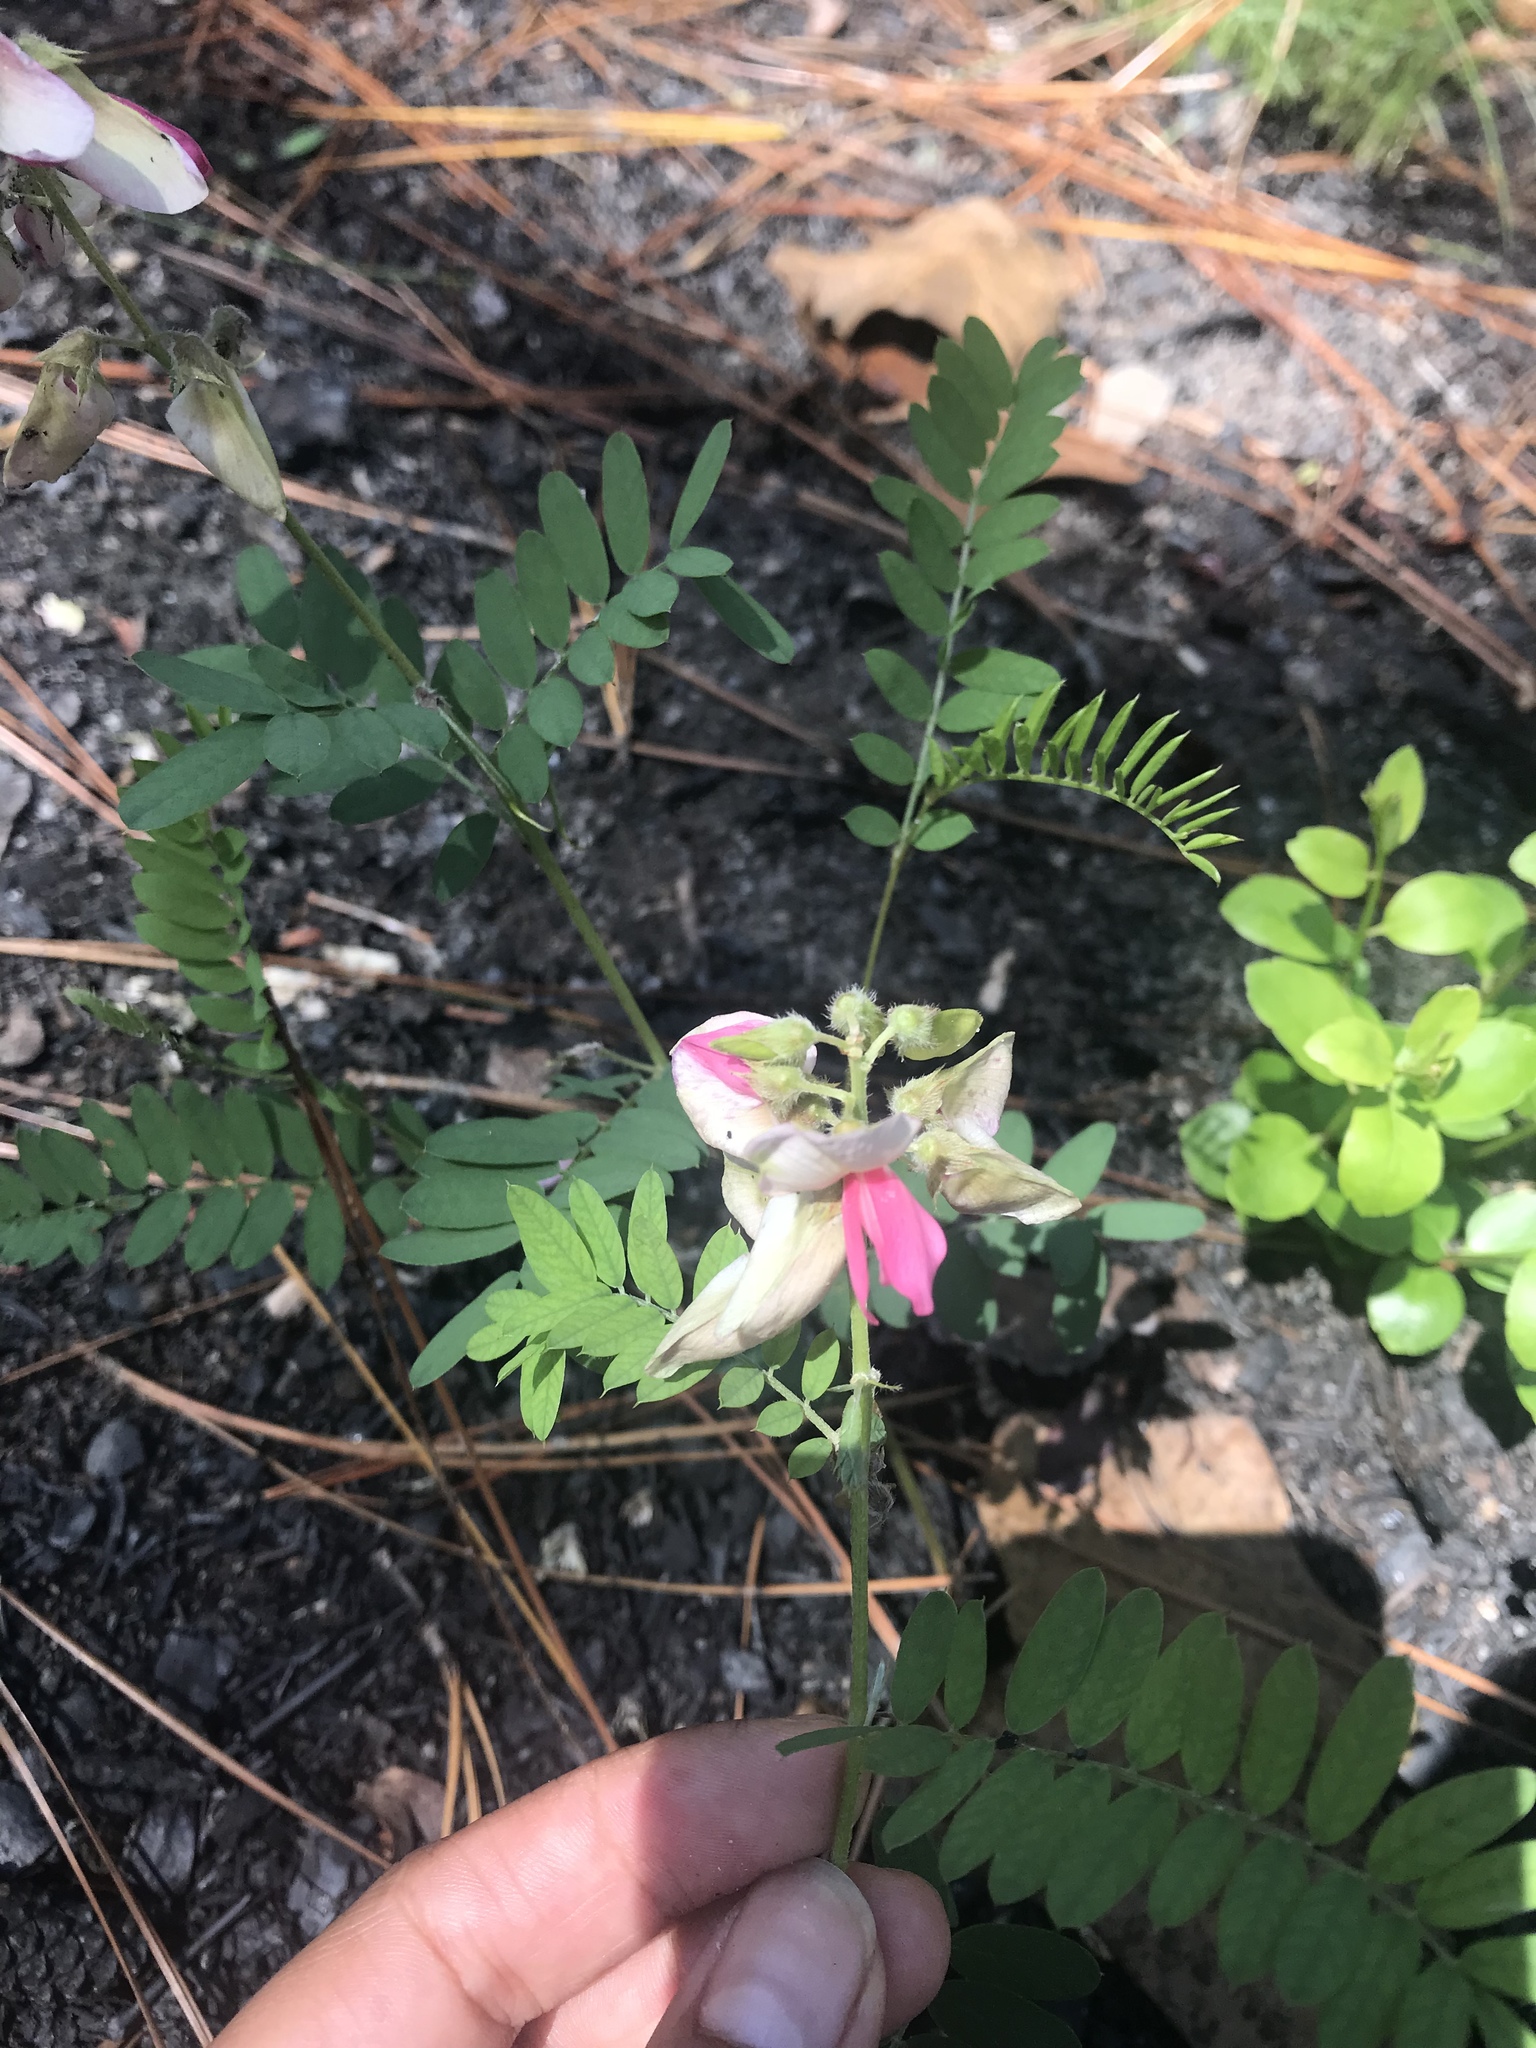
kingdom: Plantae
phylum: Tracheophyta
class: Magnoliopsida
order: Fabales
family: Fabaceae
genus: Tephrosia
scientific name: Tephrosia virginiana
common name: Rabbit-pea
